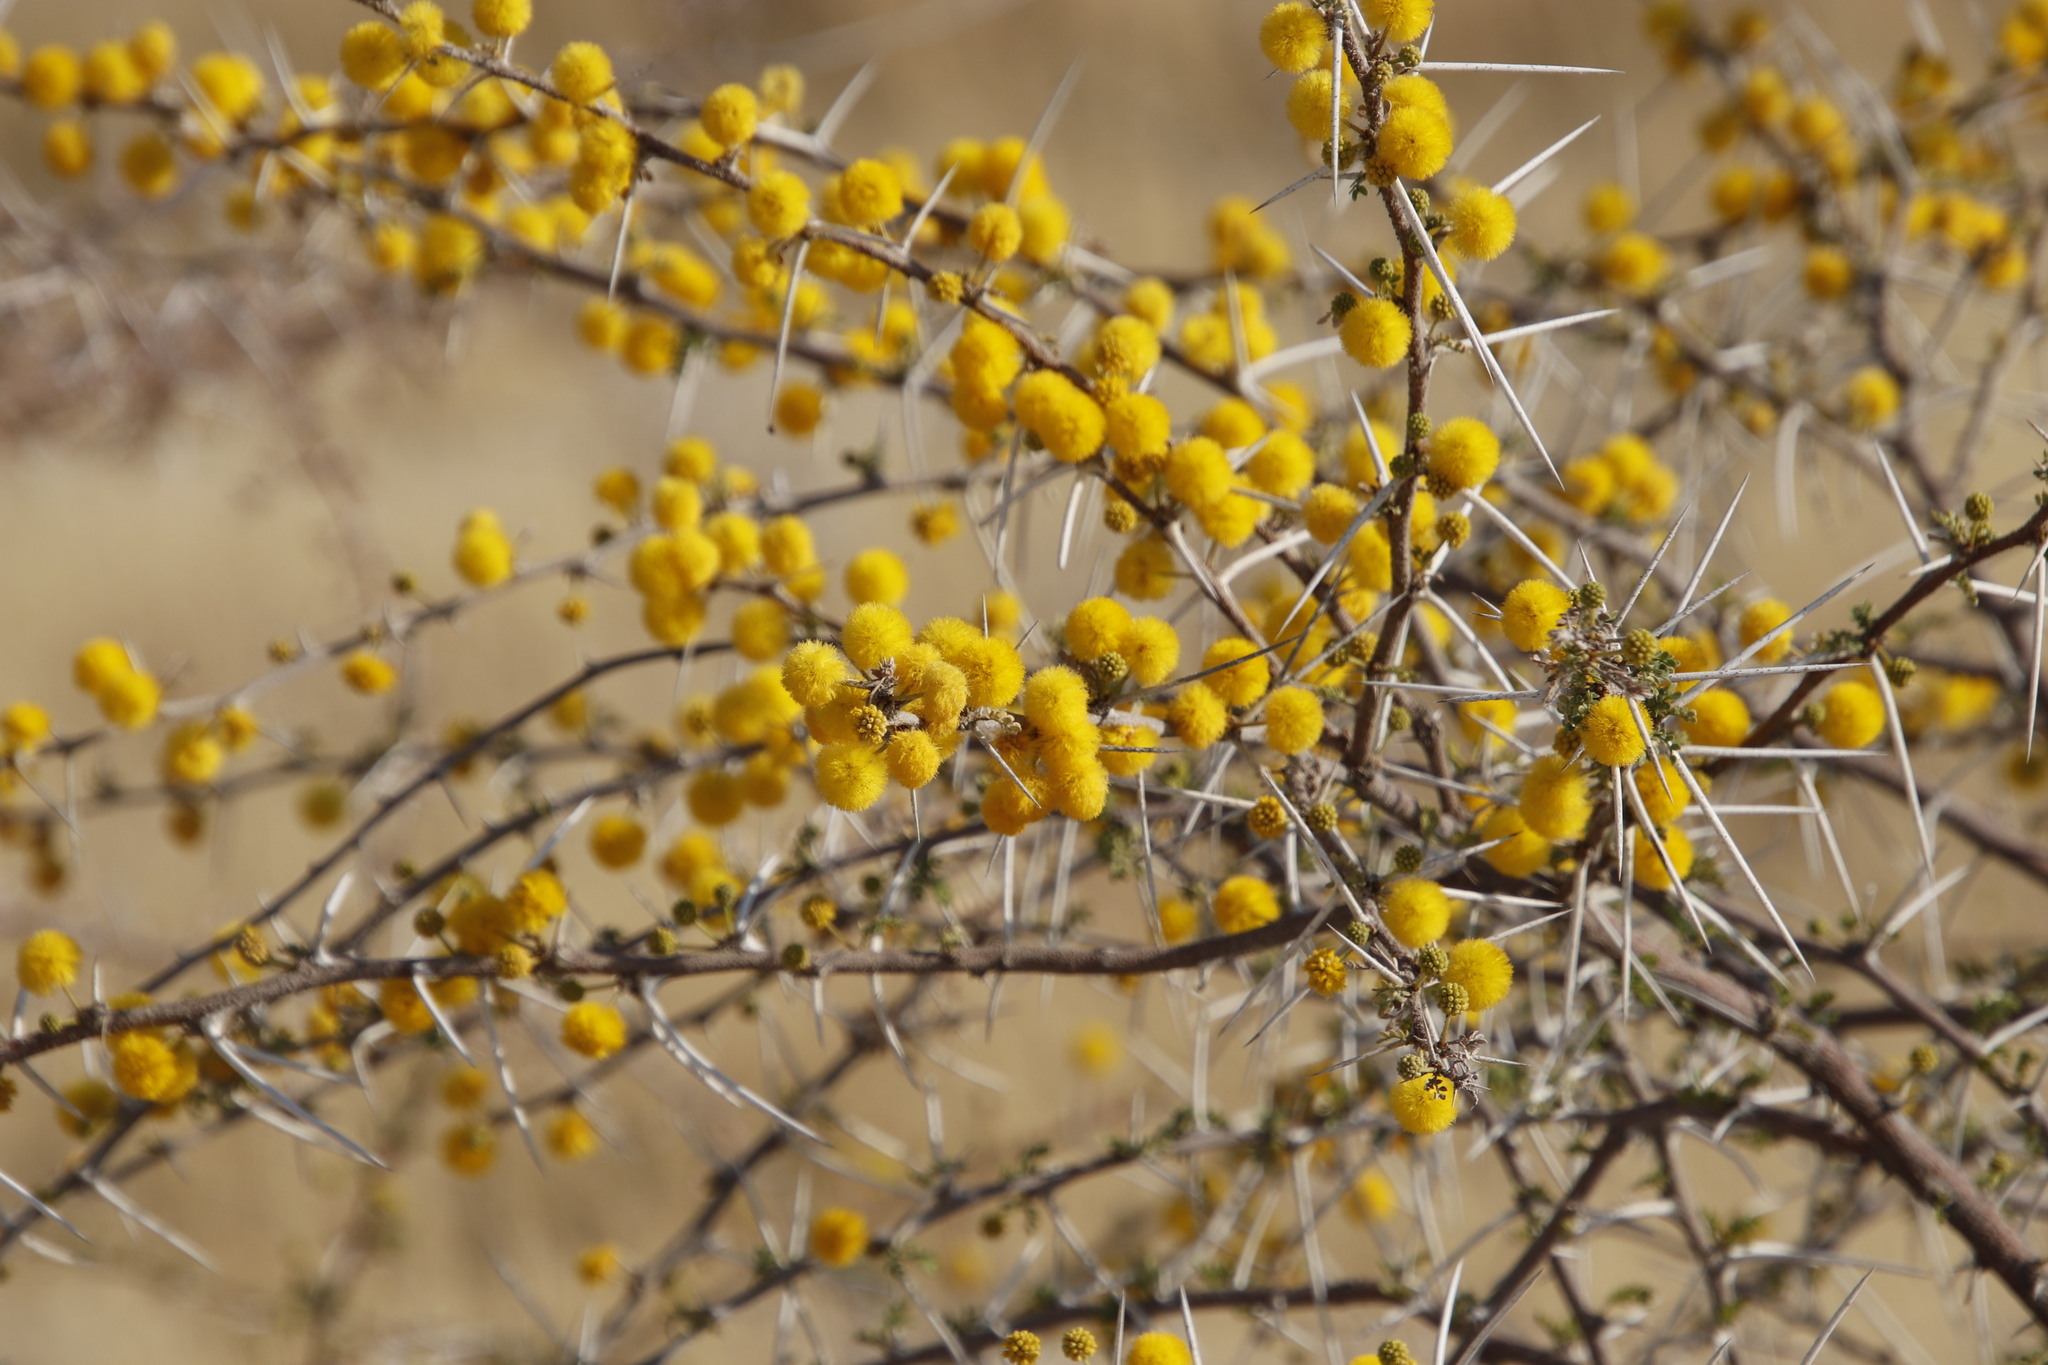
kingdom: Plantae
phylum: Tracheophyta
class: Magnoliopsida
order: Fabales
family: Fabaceae
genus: Vachellia
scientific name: Vachellia nebrownii
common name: Water acacia
